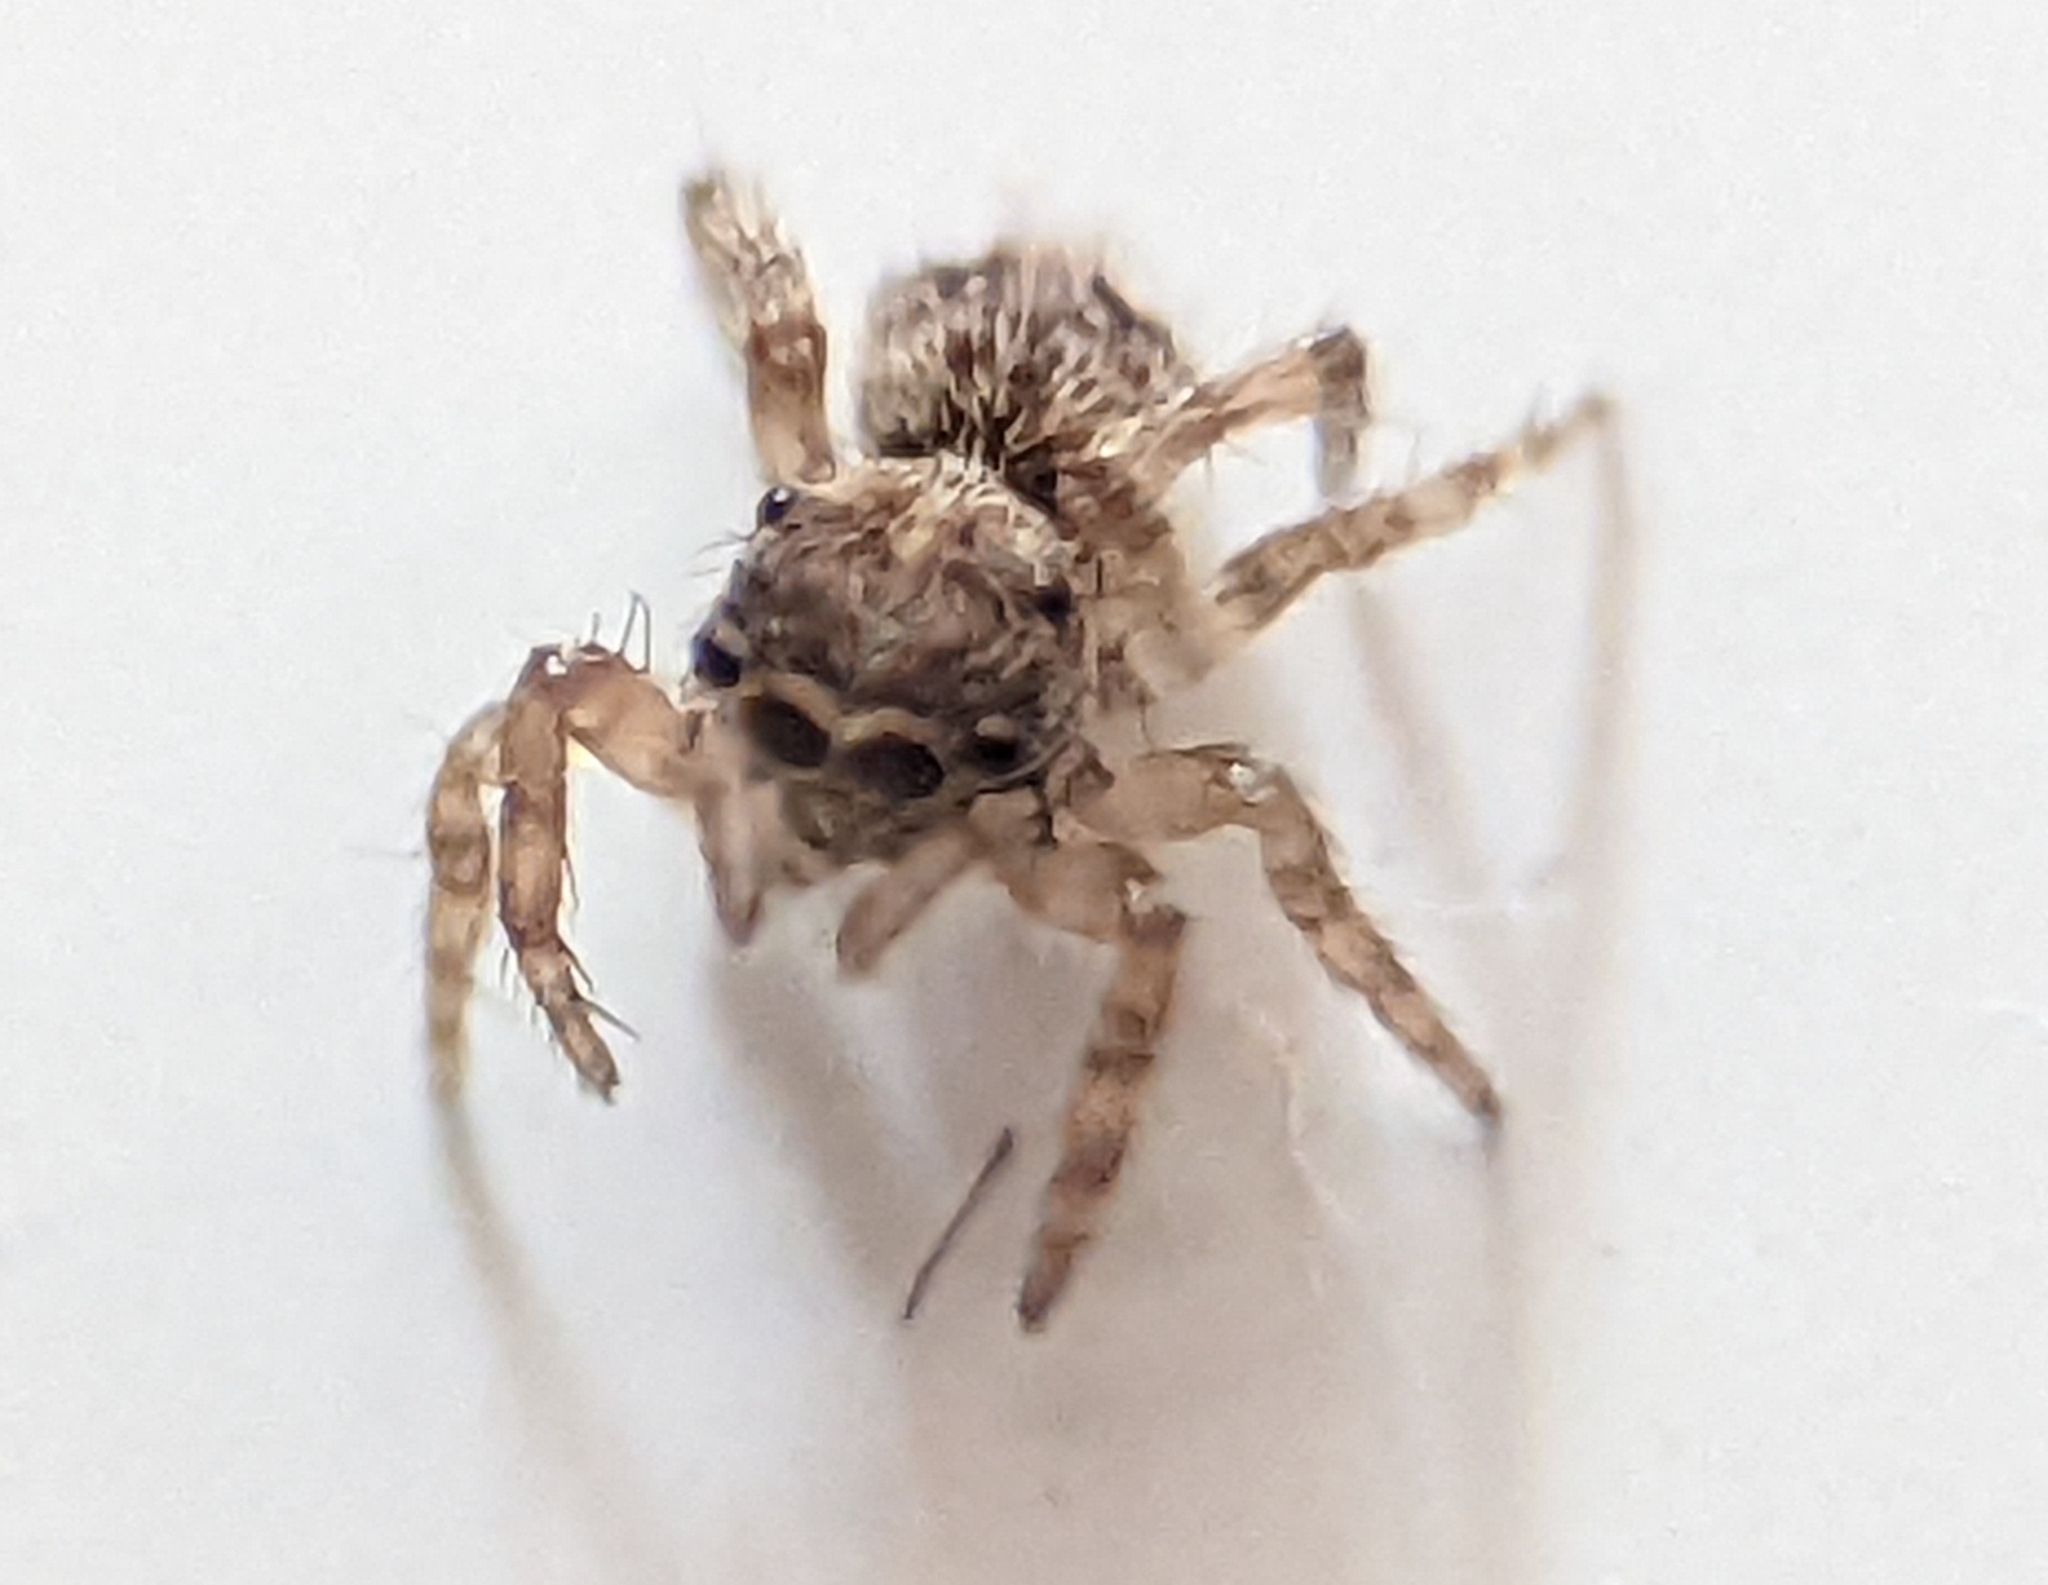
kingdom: Animalia
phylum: Arthropoda
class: Arachnida
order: Araneae
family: Salticidae
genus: Attulus
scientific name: Attulus fasciger
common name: Asiatic wall jumping spider
